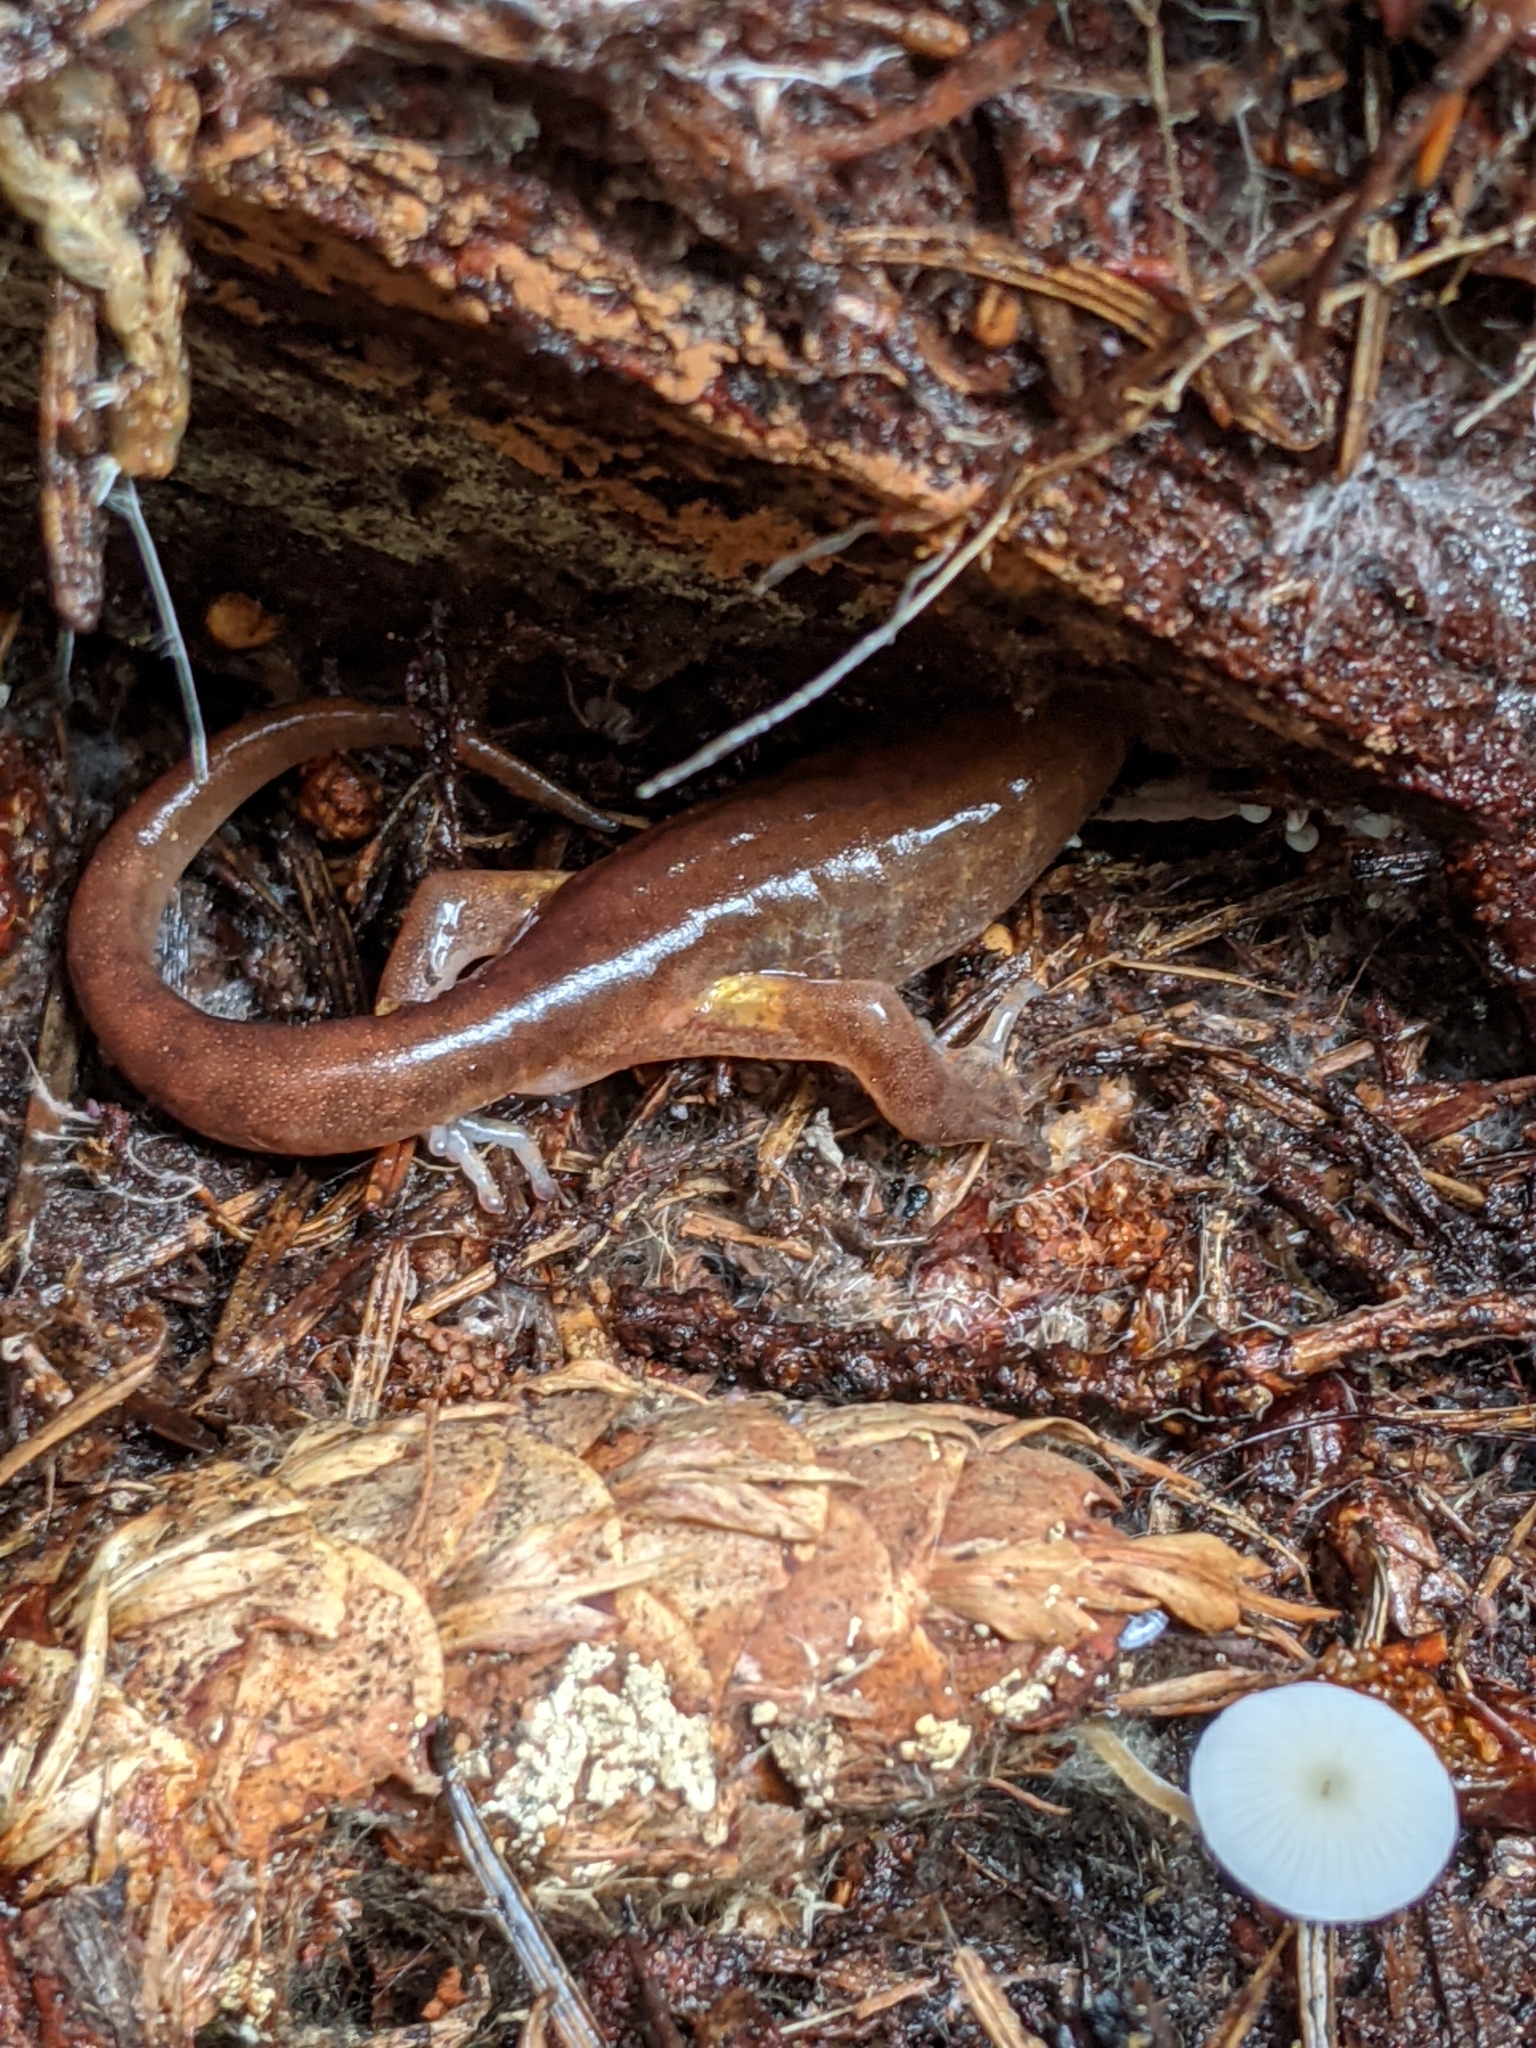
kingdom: Animalia
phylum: Chordata
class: Amphibia
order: Caudata
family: Plethodontidae
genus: Ensatina
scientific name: Ensatina eschscholtzii
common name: Ensatina
